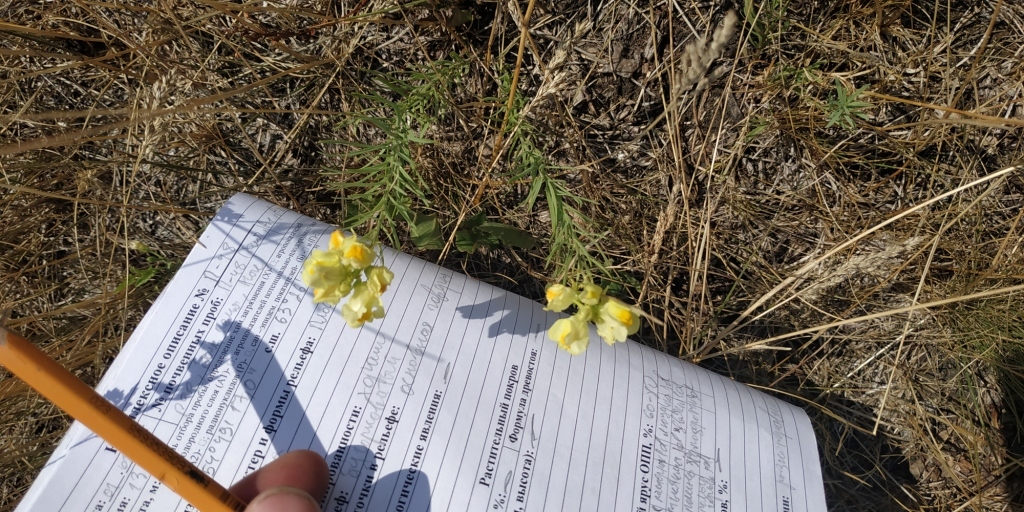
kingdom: Plantae
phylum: Tracheophyta
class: Magnoliopsida
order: Lamiales
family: Plantaginaceae
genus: Linaria
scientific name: Linaria vulgaris
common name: Butter and eggs
